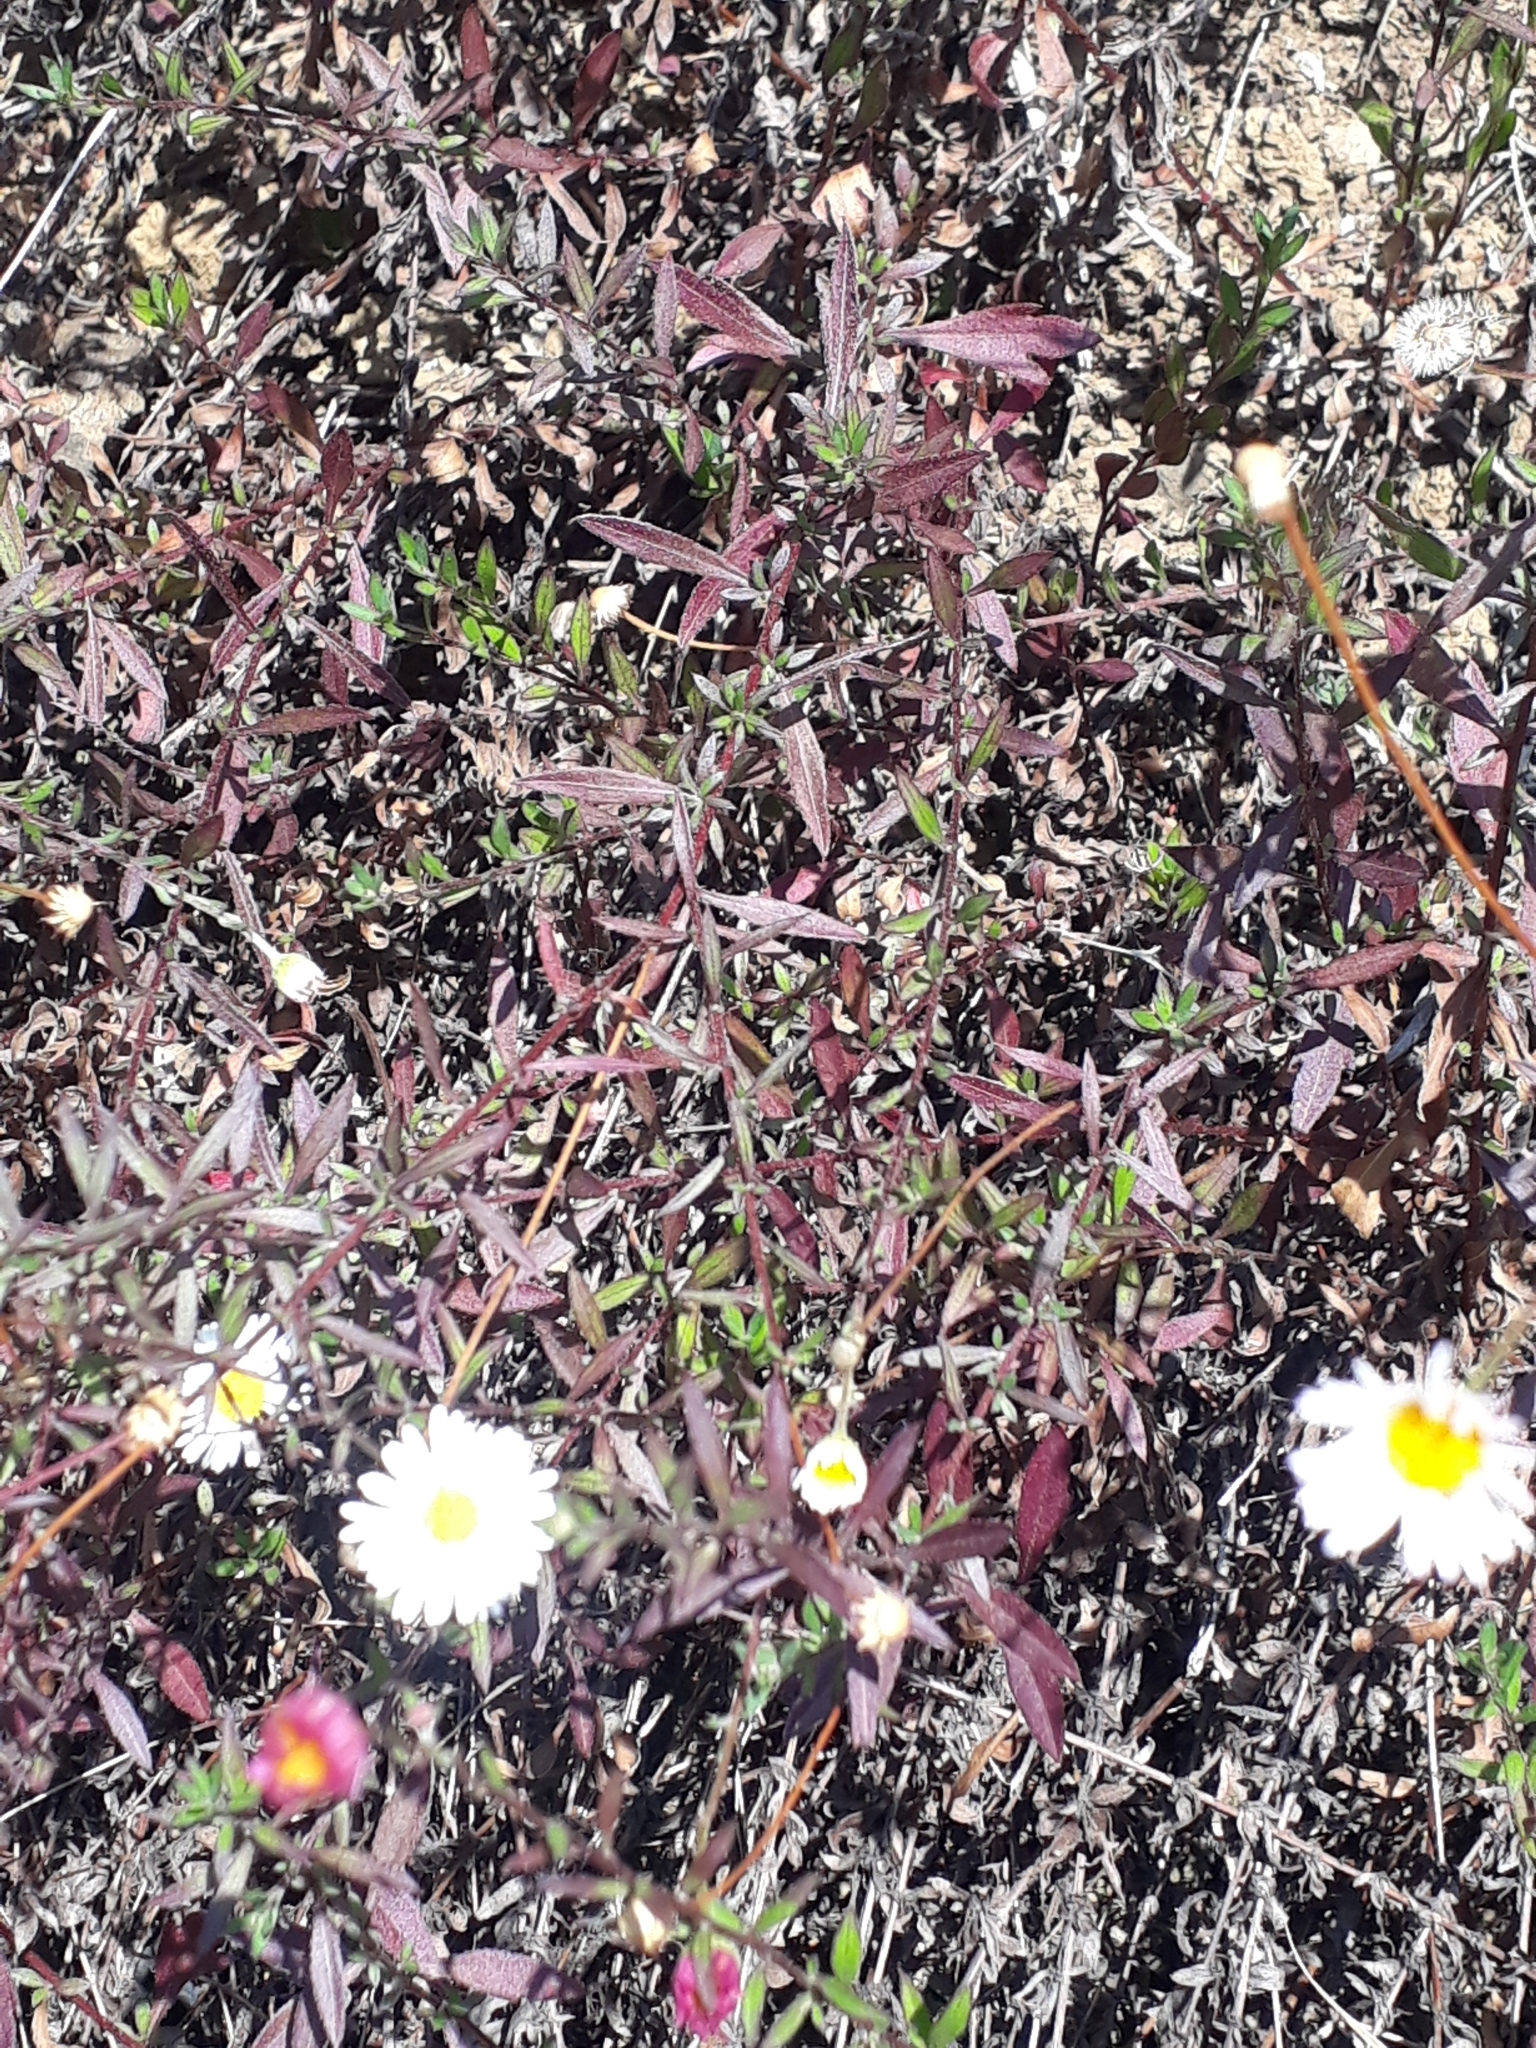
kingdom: Plantae
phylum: Tracheophyta
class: Magnoliopsida
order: Asterales
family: Asteraceae
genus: Erigeron
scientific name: Erigeron karvinskianus
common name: Mexican fleabane
